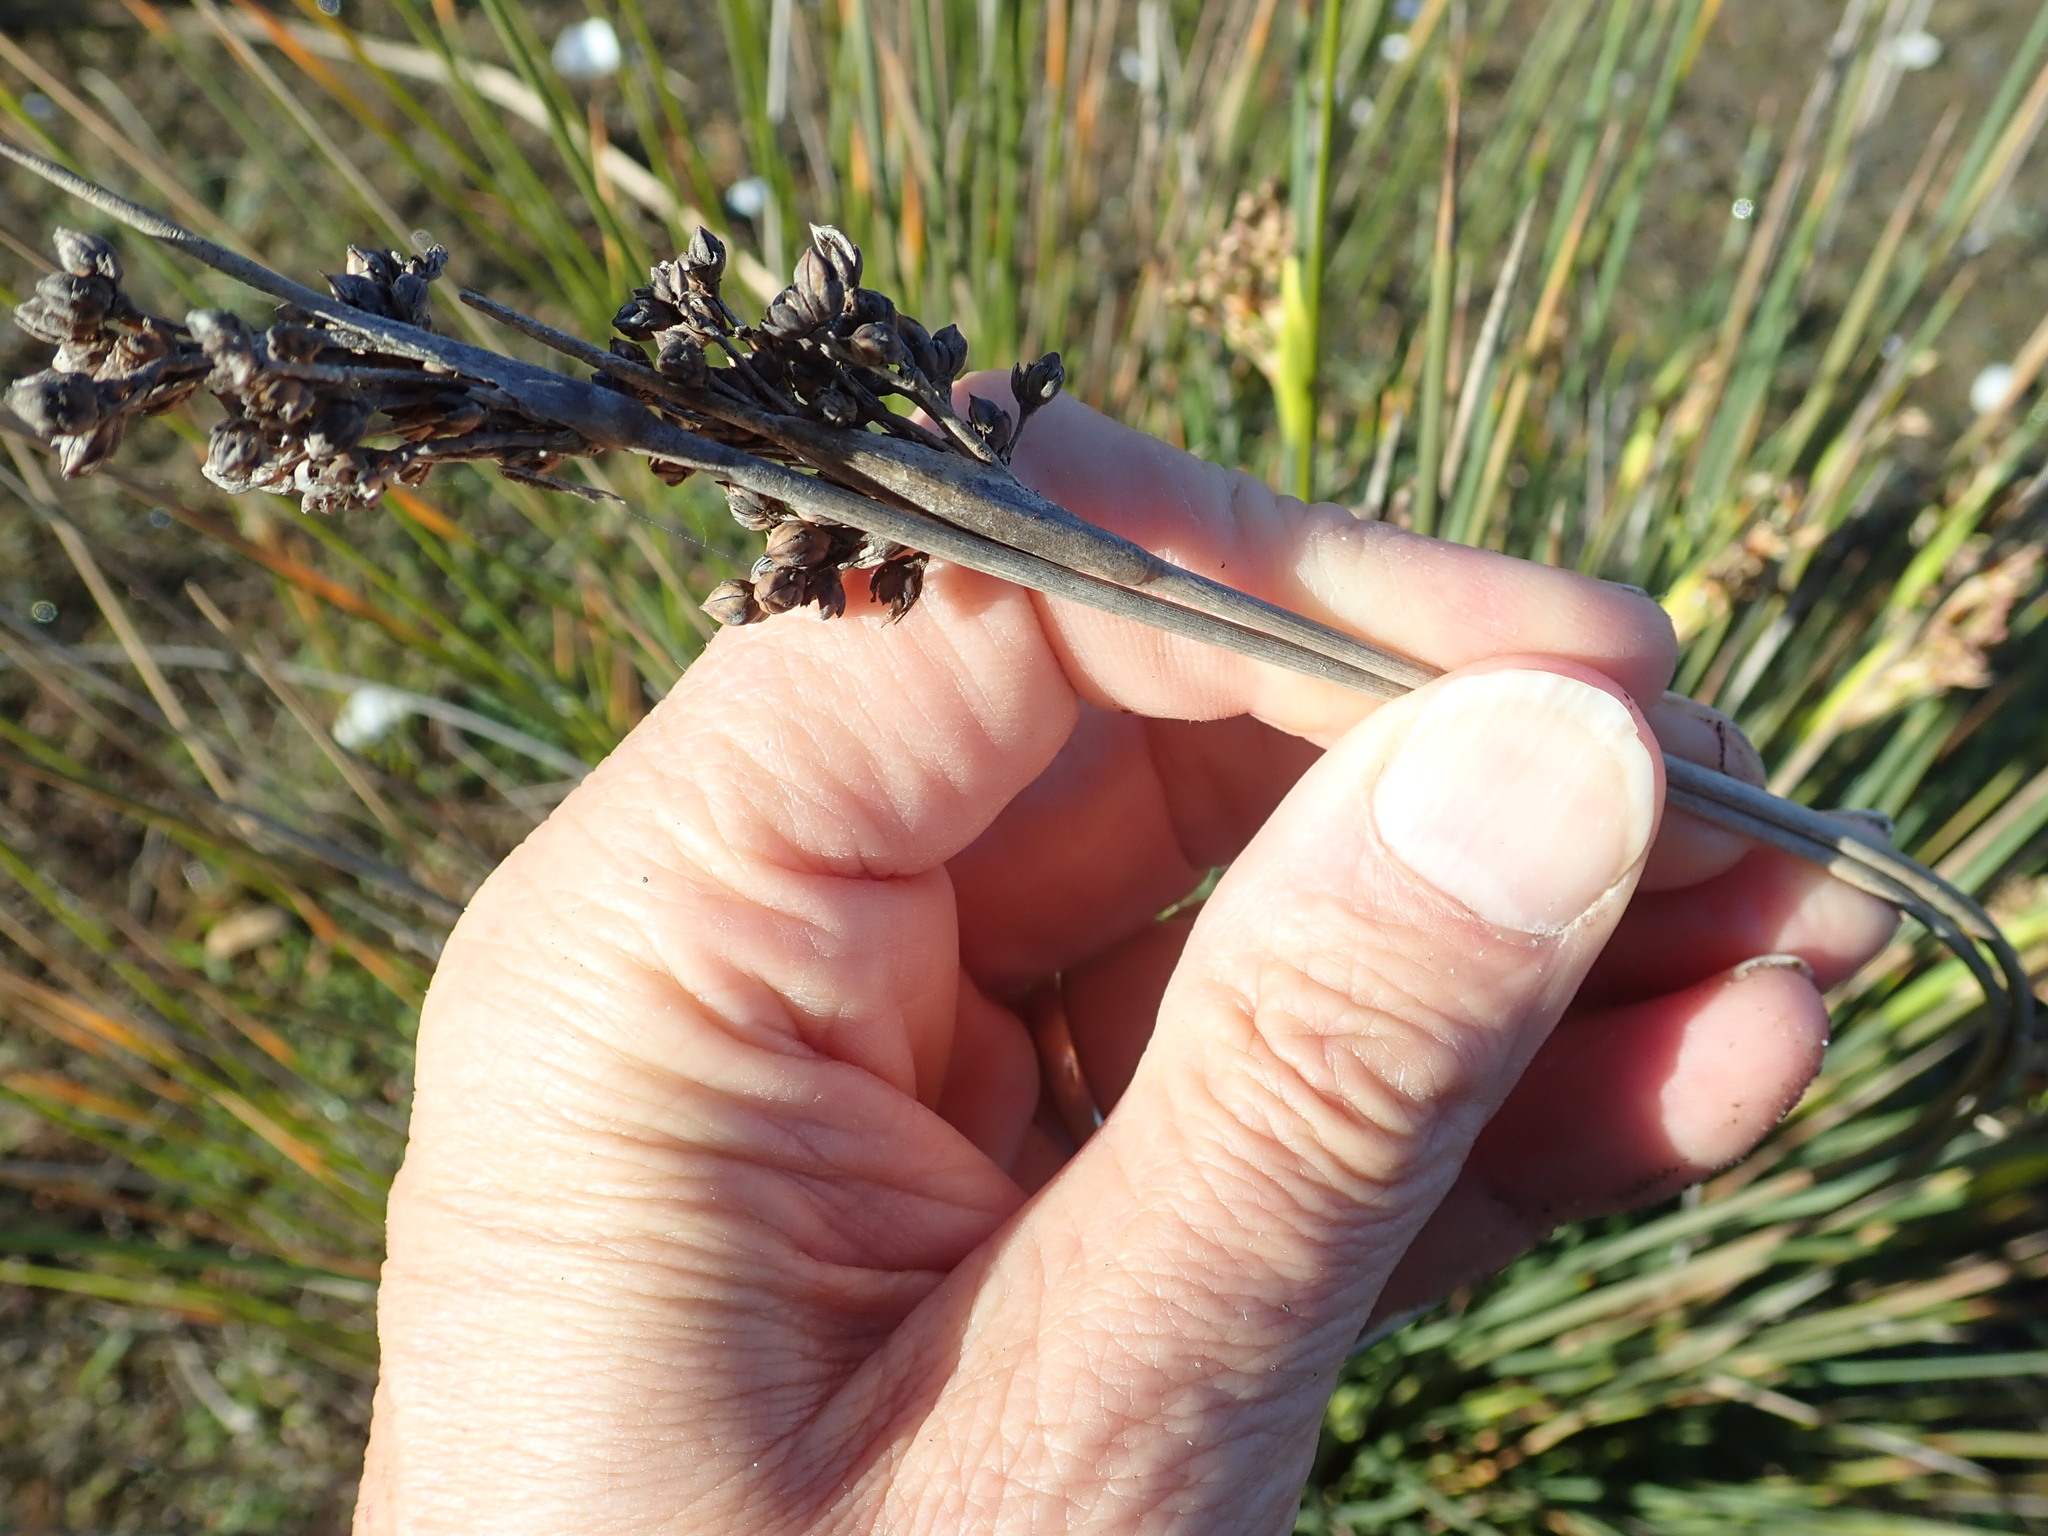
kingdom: Plantae
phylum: Tracheophyta
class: Liliopsida
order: Poales
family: Juncaceae
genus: Juncus
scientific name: Juncus acutus
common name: Sharp rush
